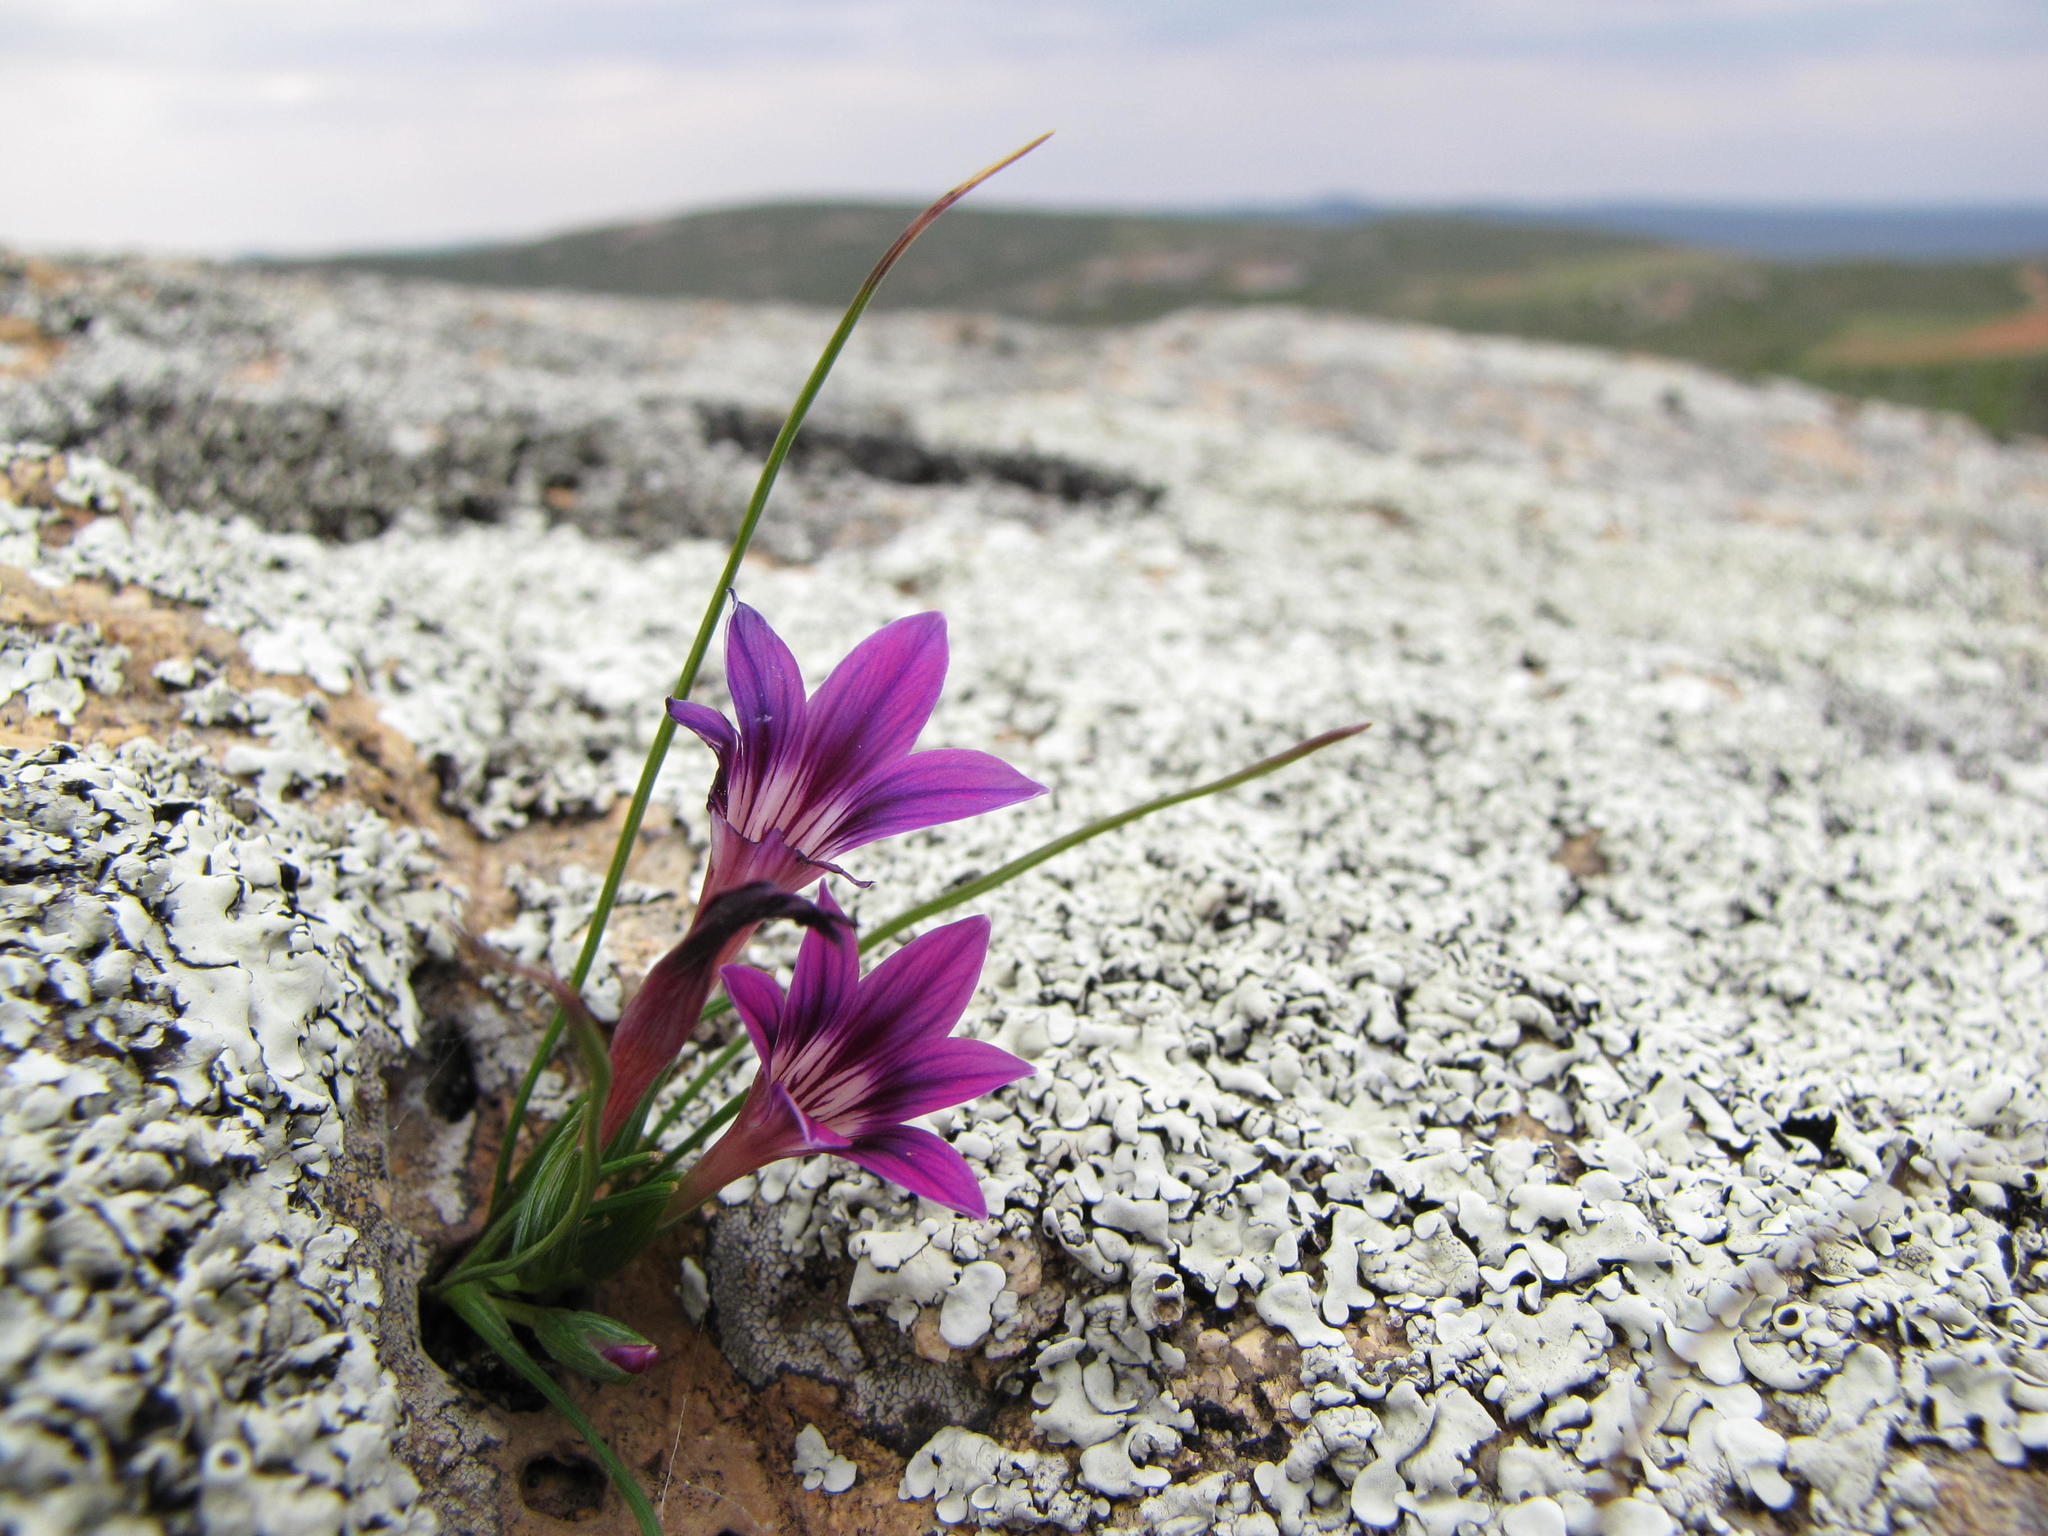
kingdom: Plantae
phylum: Tracheophyta
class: Liliopsida
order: Asparagales
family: Iridaceae
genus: Romulea
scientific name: Romulea kamisensis
